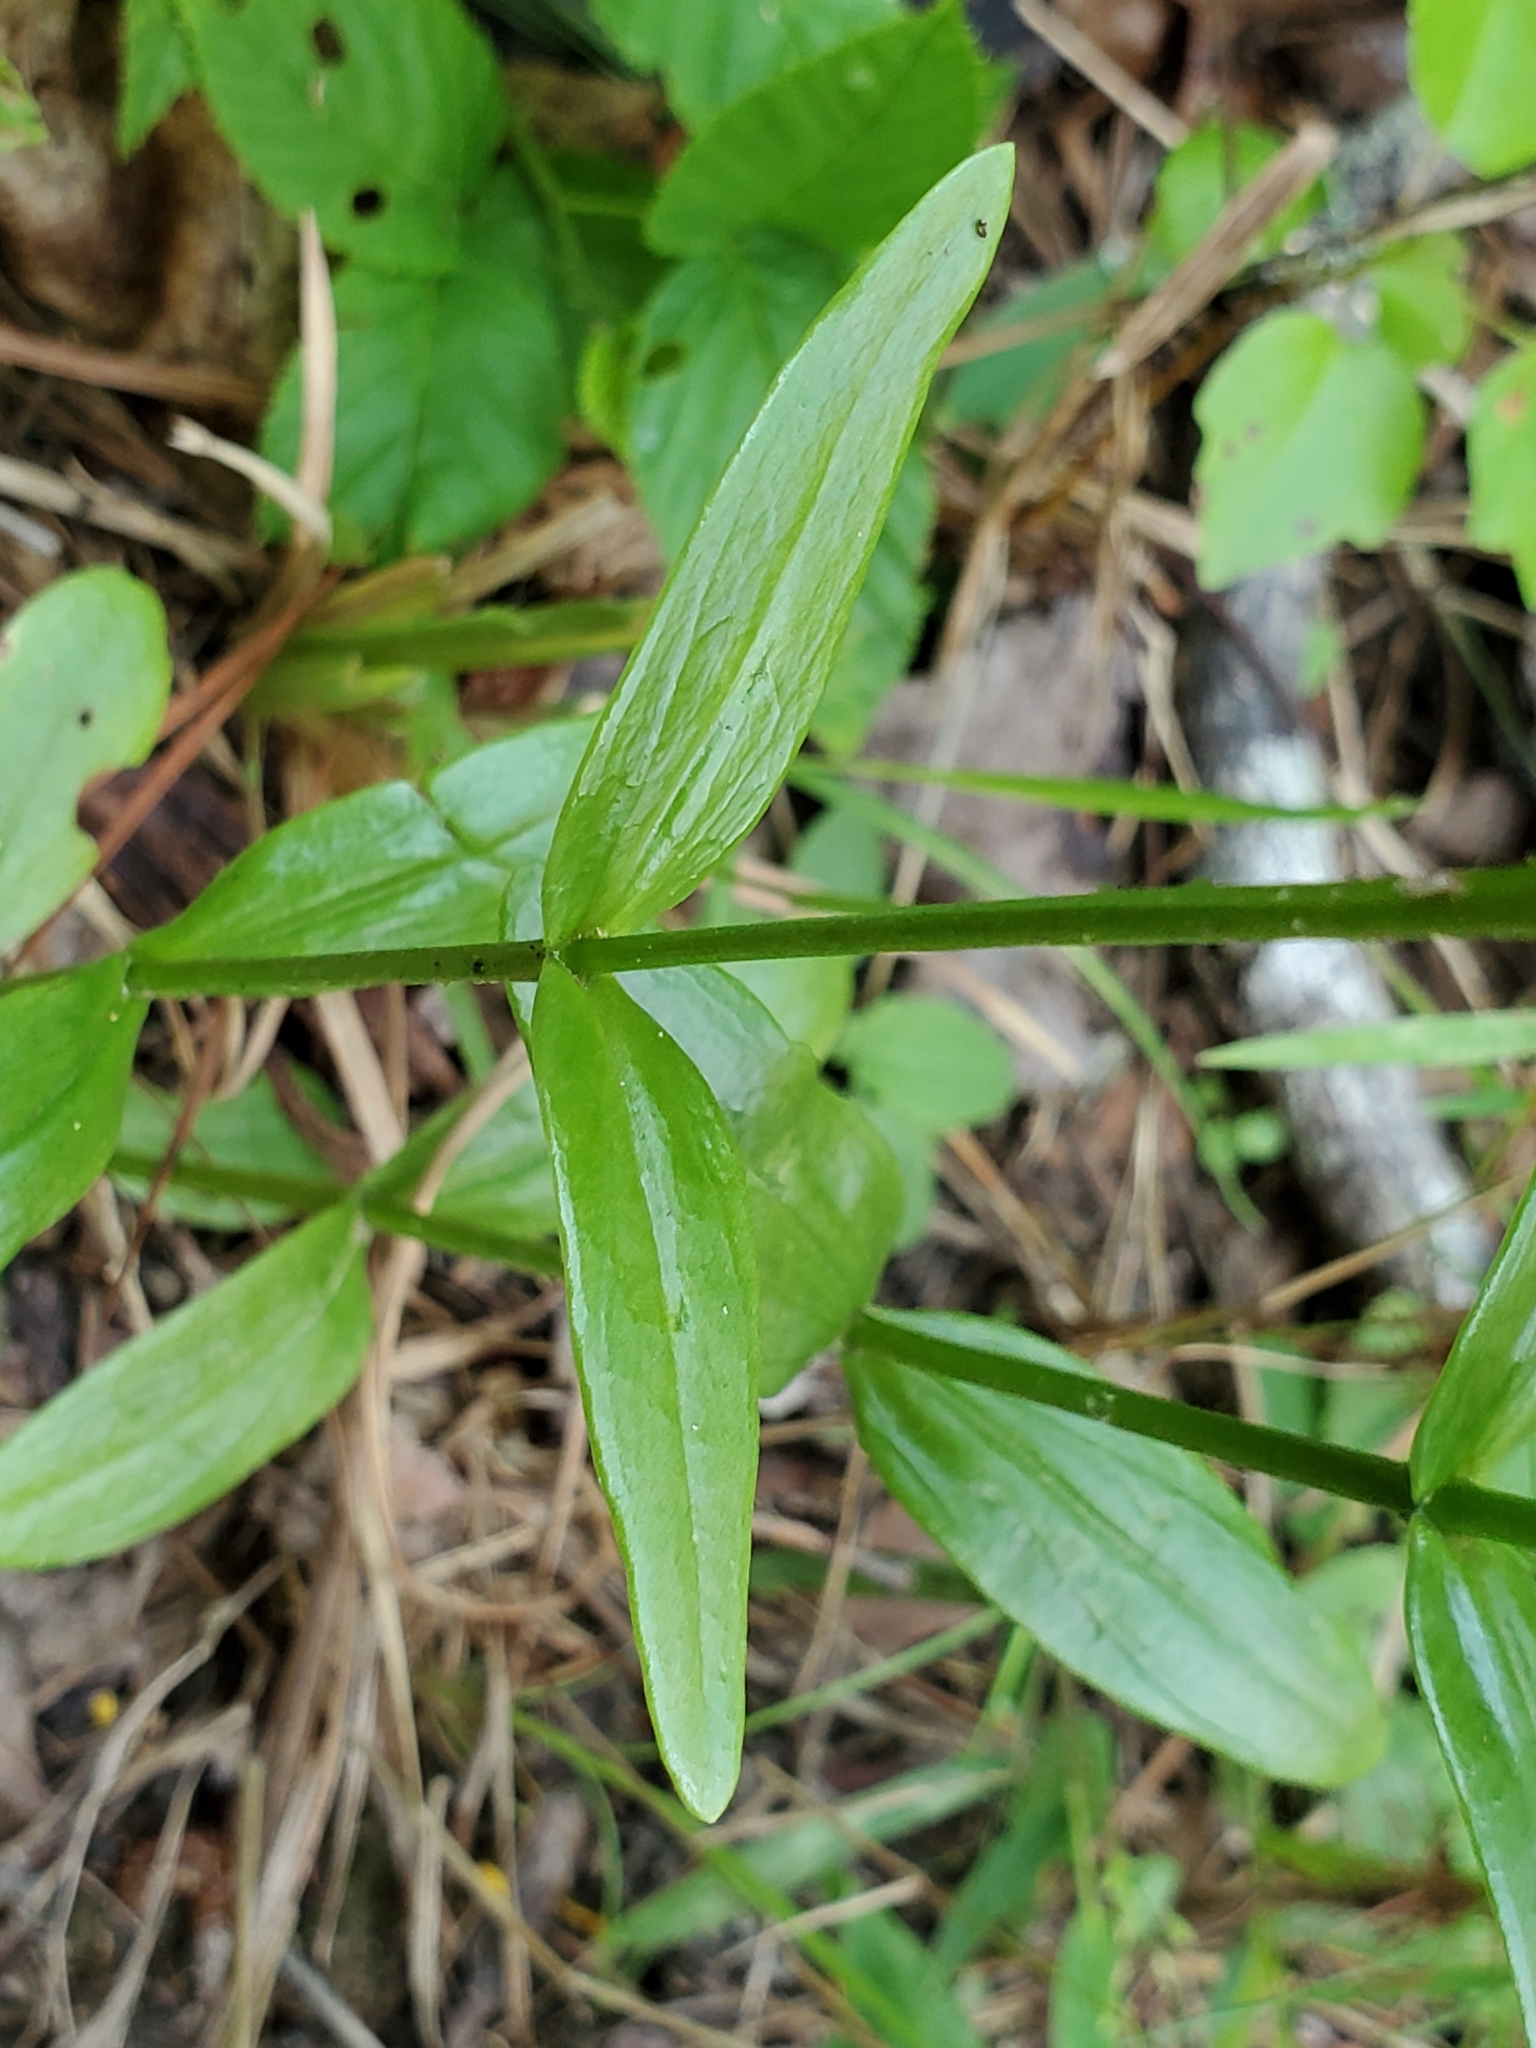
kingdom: Plantae
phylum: Tracheophyta
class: Magnoliopsida
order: Gentianales
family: Gentianaceae
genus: Sabatia
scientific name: Sabatia capitata
